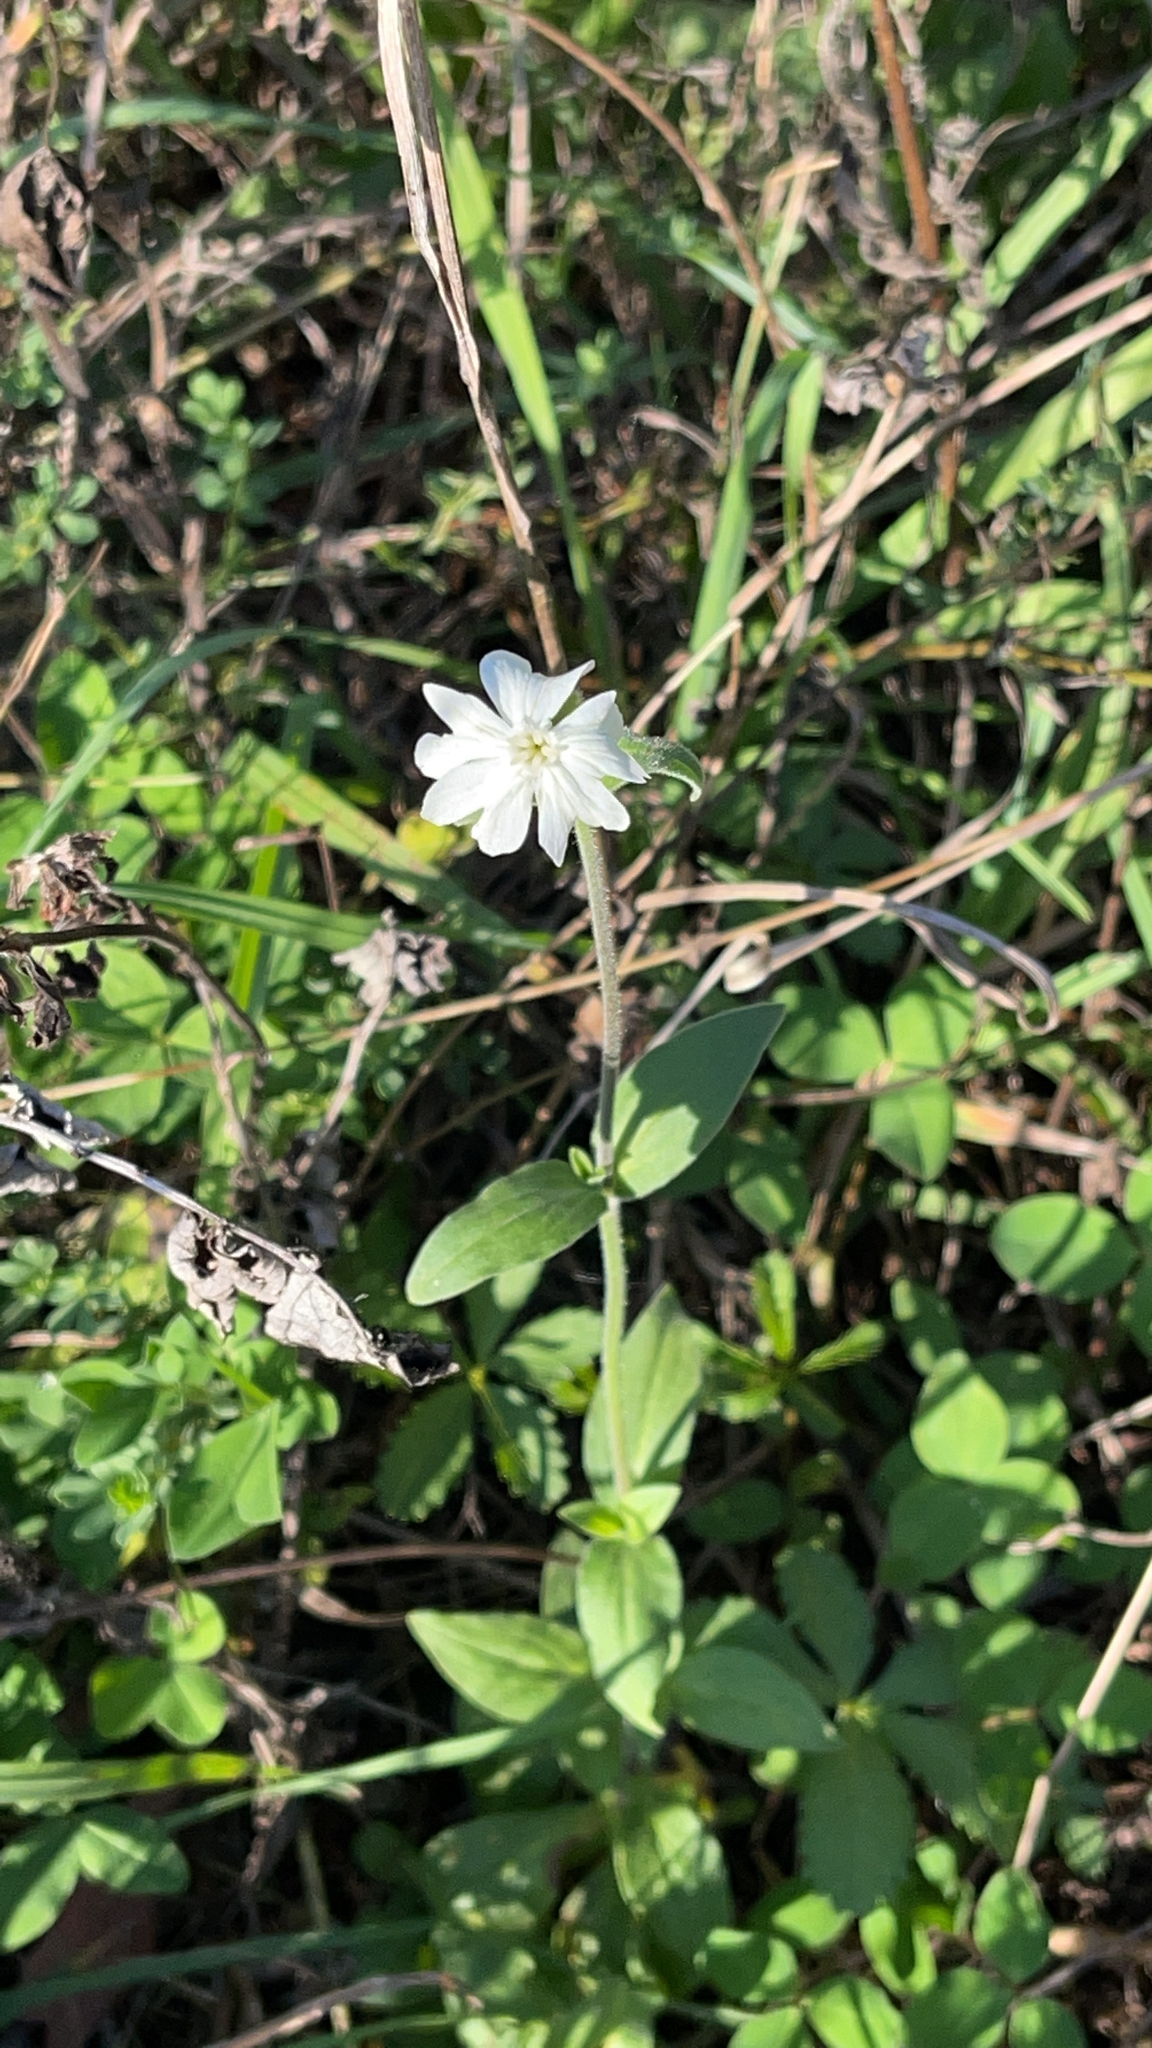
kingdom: Plantae
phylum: Tracheophyta
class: Magnoliopsida
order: Caryophyllales
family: Caryophyllaceae
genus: Silene
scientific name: Silene latifolia
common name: White campion
